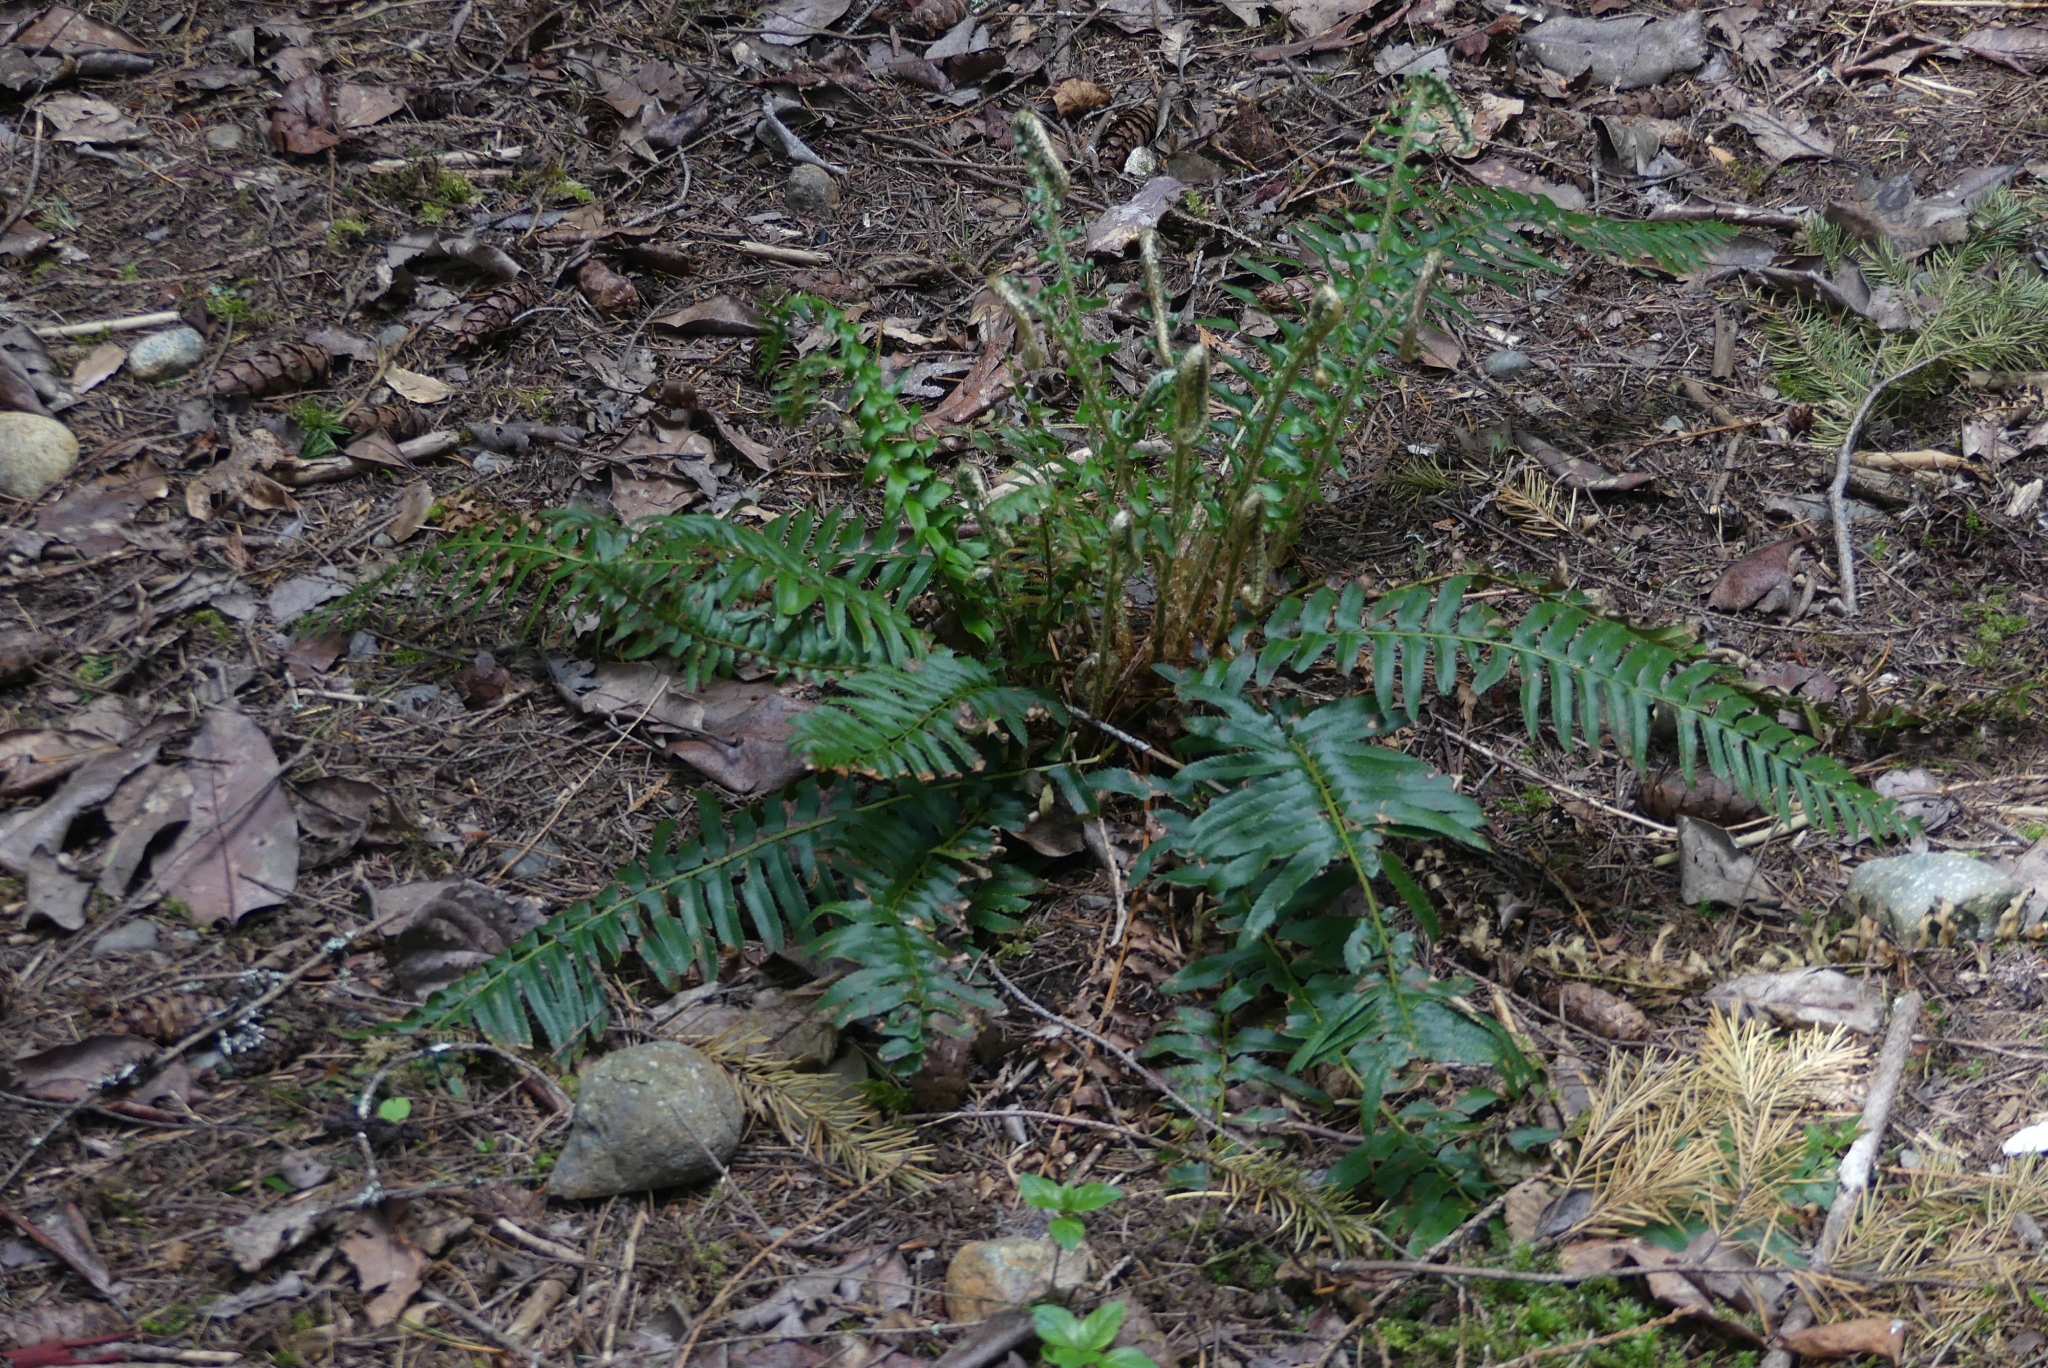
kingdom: Plantae
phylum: Tracheophyta
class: Polypodiopsida
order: Polypodiales
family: Dryopteridaceae
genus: Polystichum
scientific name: Polystichum munitum
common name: Western sword-fern
